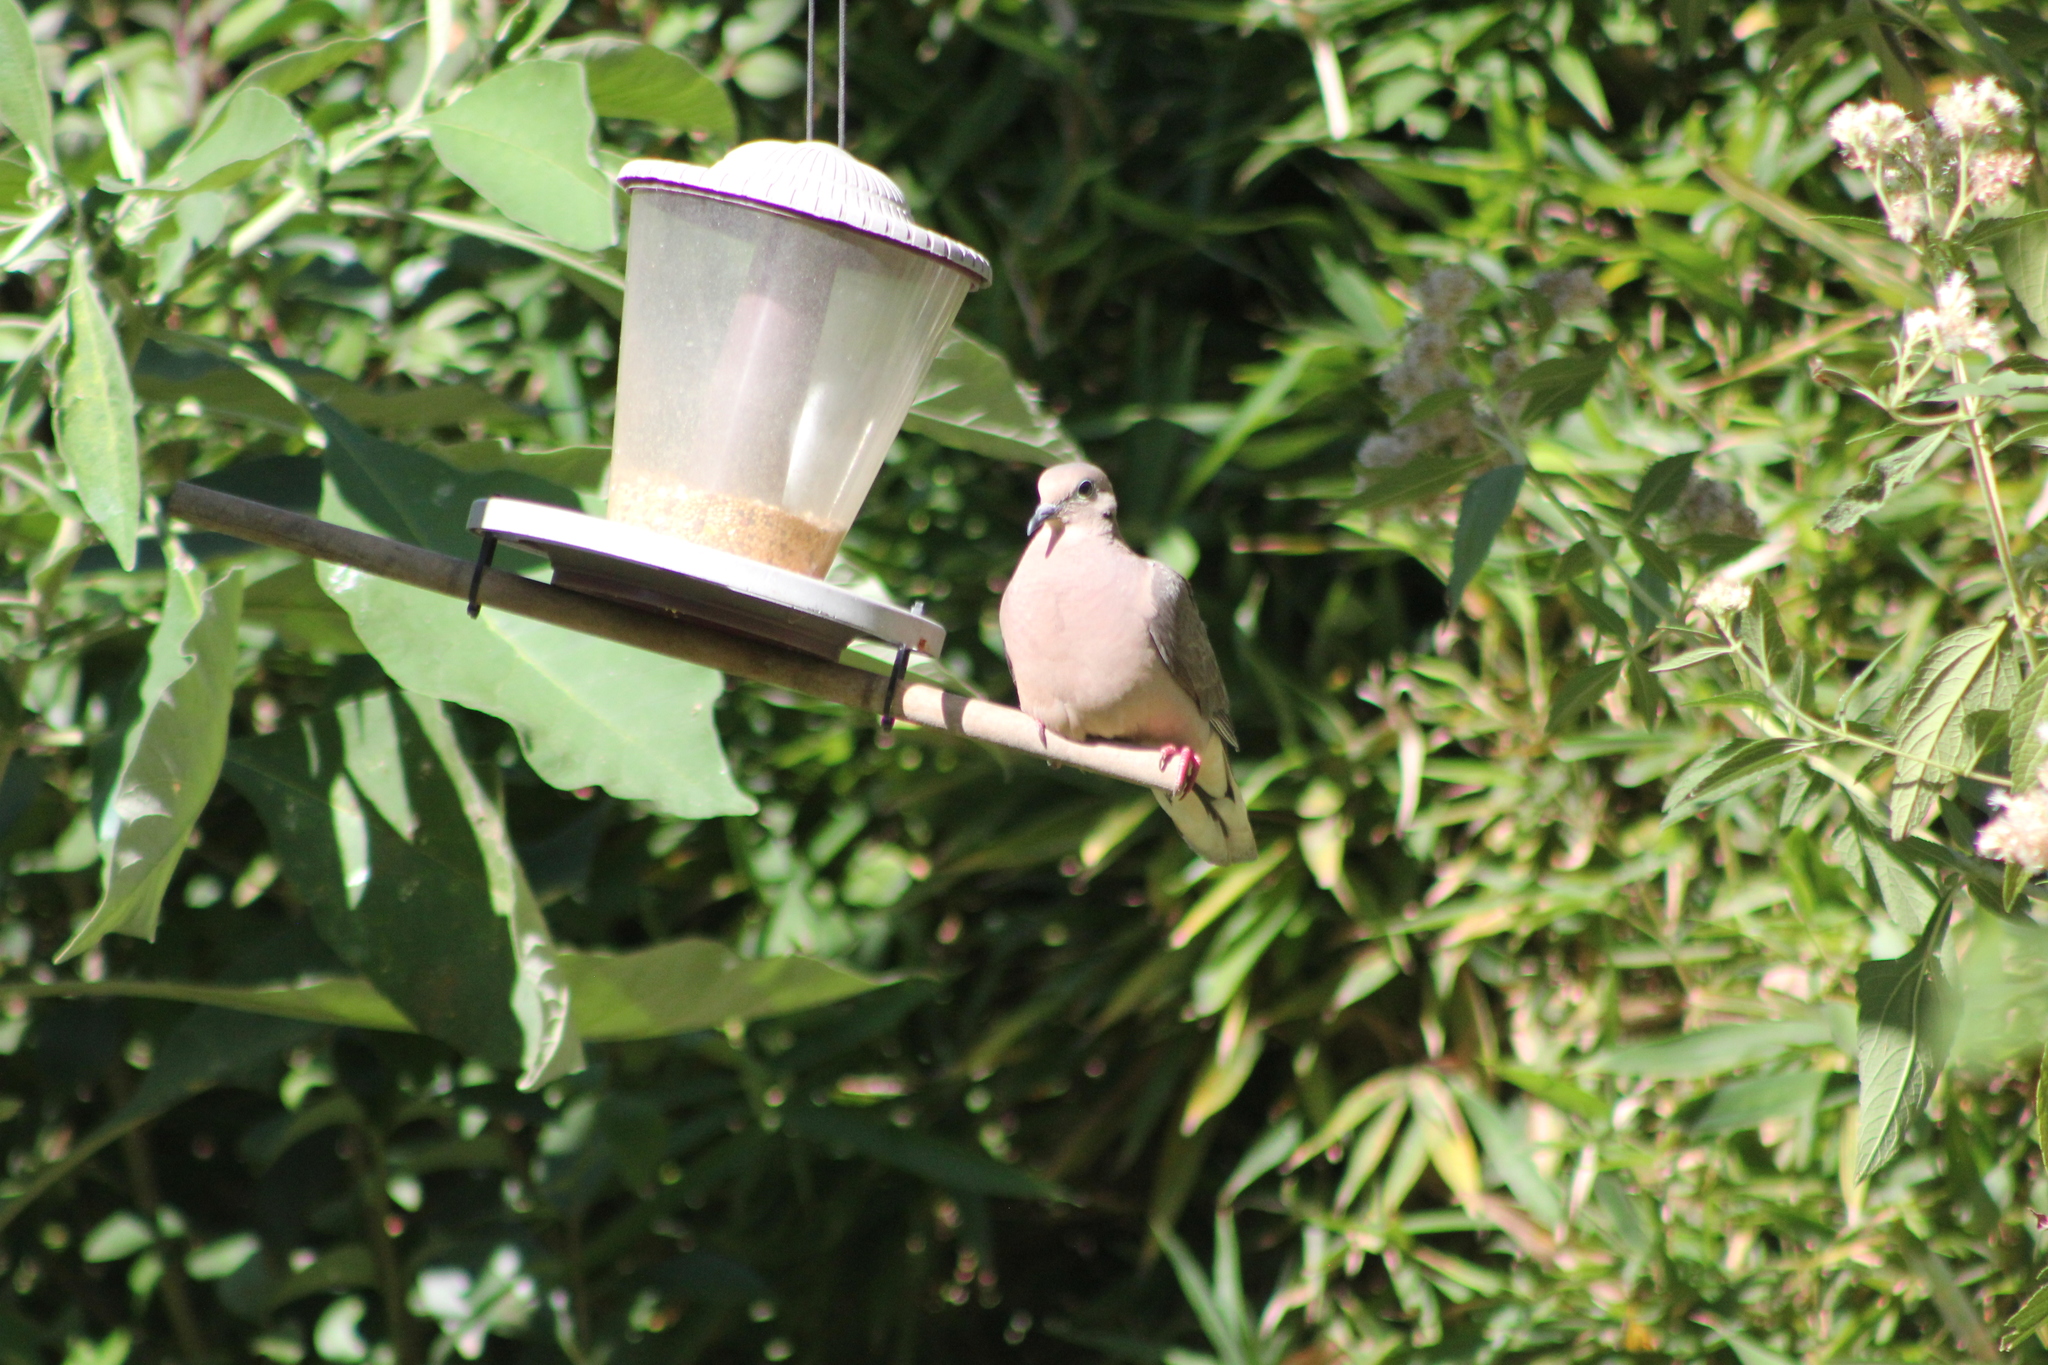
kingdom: Animalia
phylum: Chordata
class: Aves
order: Columbiformes
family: Columbidae
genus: Zenaida
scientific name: Zenaida auriculata
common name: Eared dove
